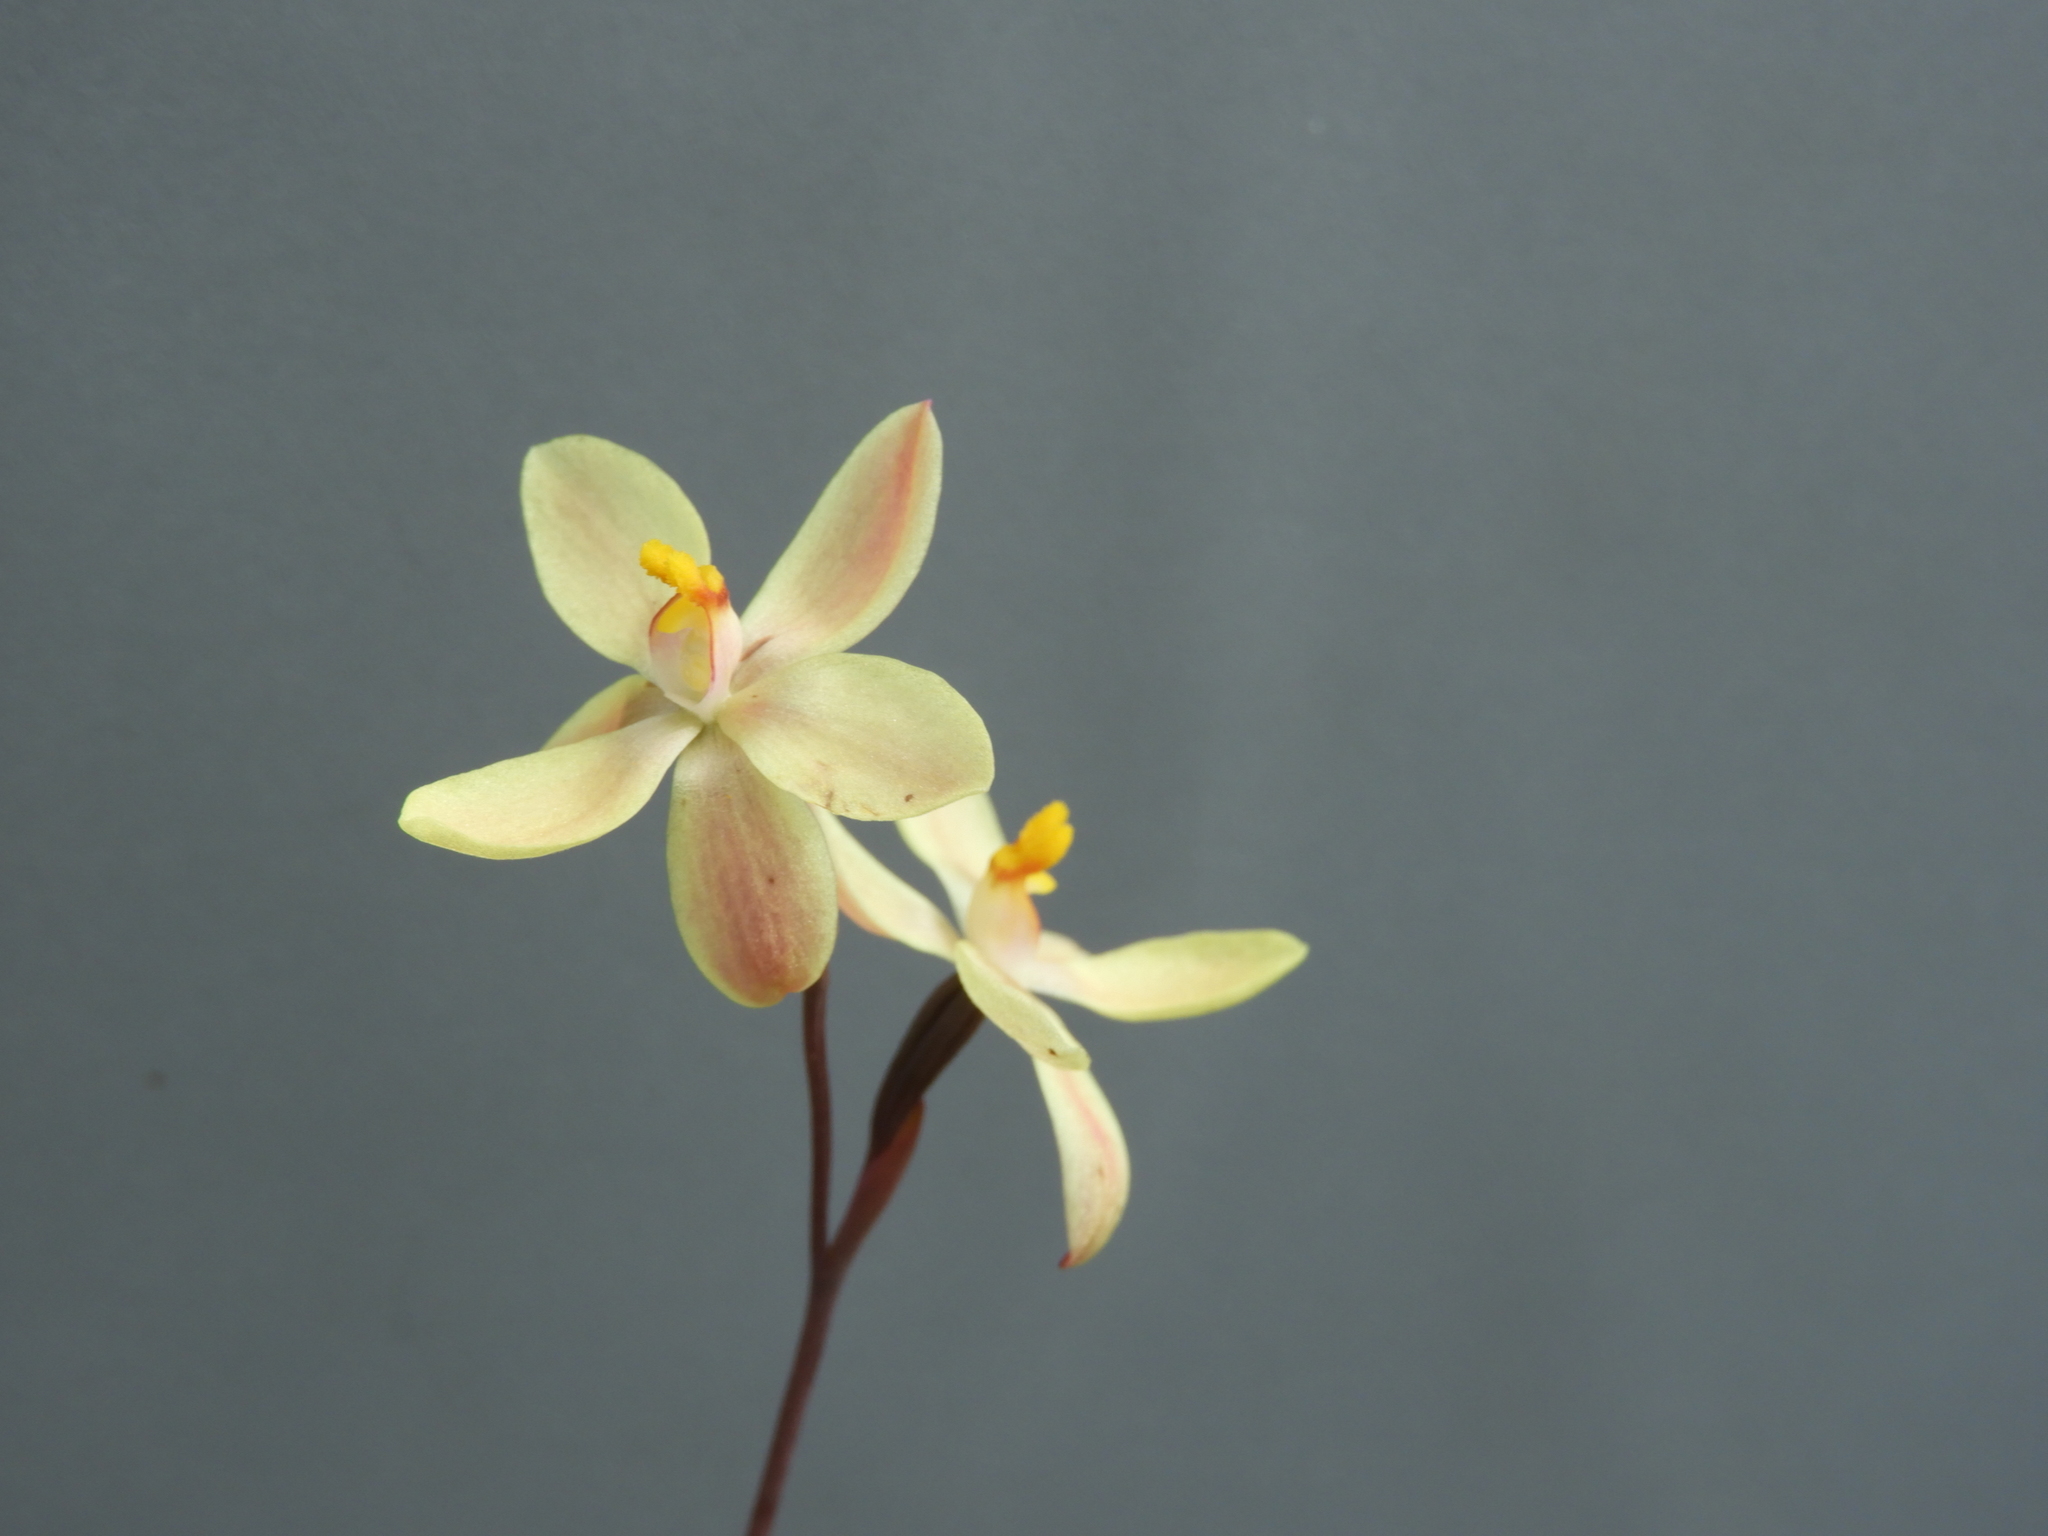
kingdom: Plantae
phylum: Tracheophyta
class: Liliopsida
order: Asparagales
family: Orchidaceae
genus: Thelymitra
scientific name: Thelymitra macmillanii
